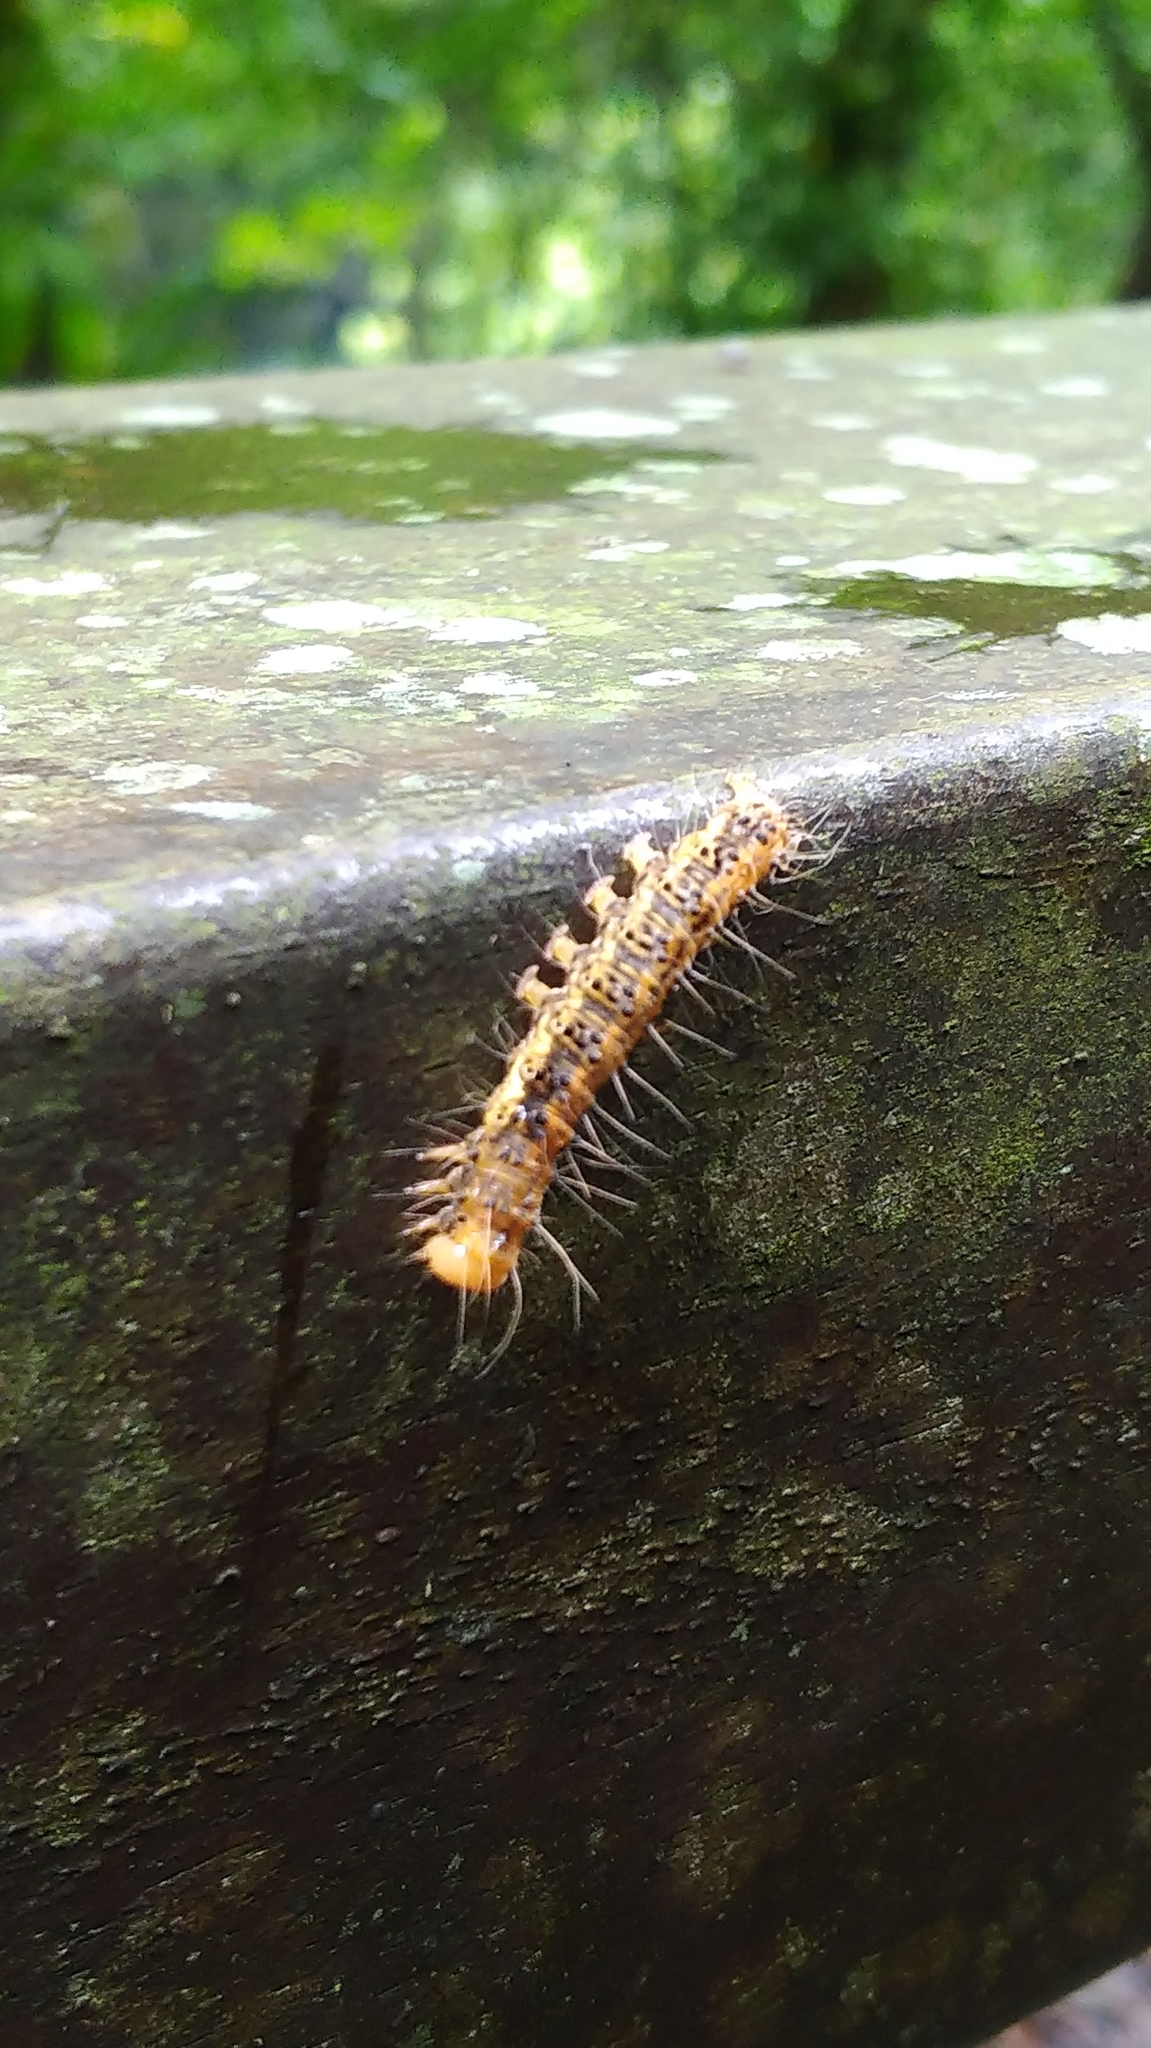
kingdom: Animalia
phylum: Arthropoda
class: Insecta
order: Lepidoptera
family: Erebidae
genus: Asota
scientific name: Asota heliconia
